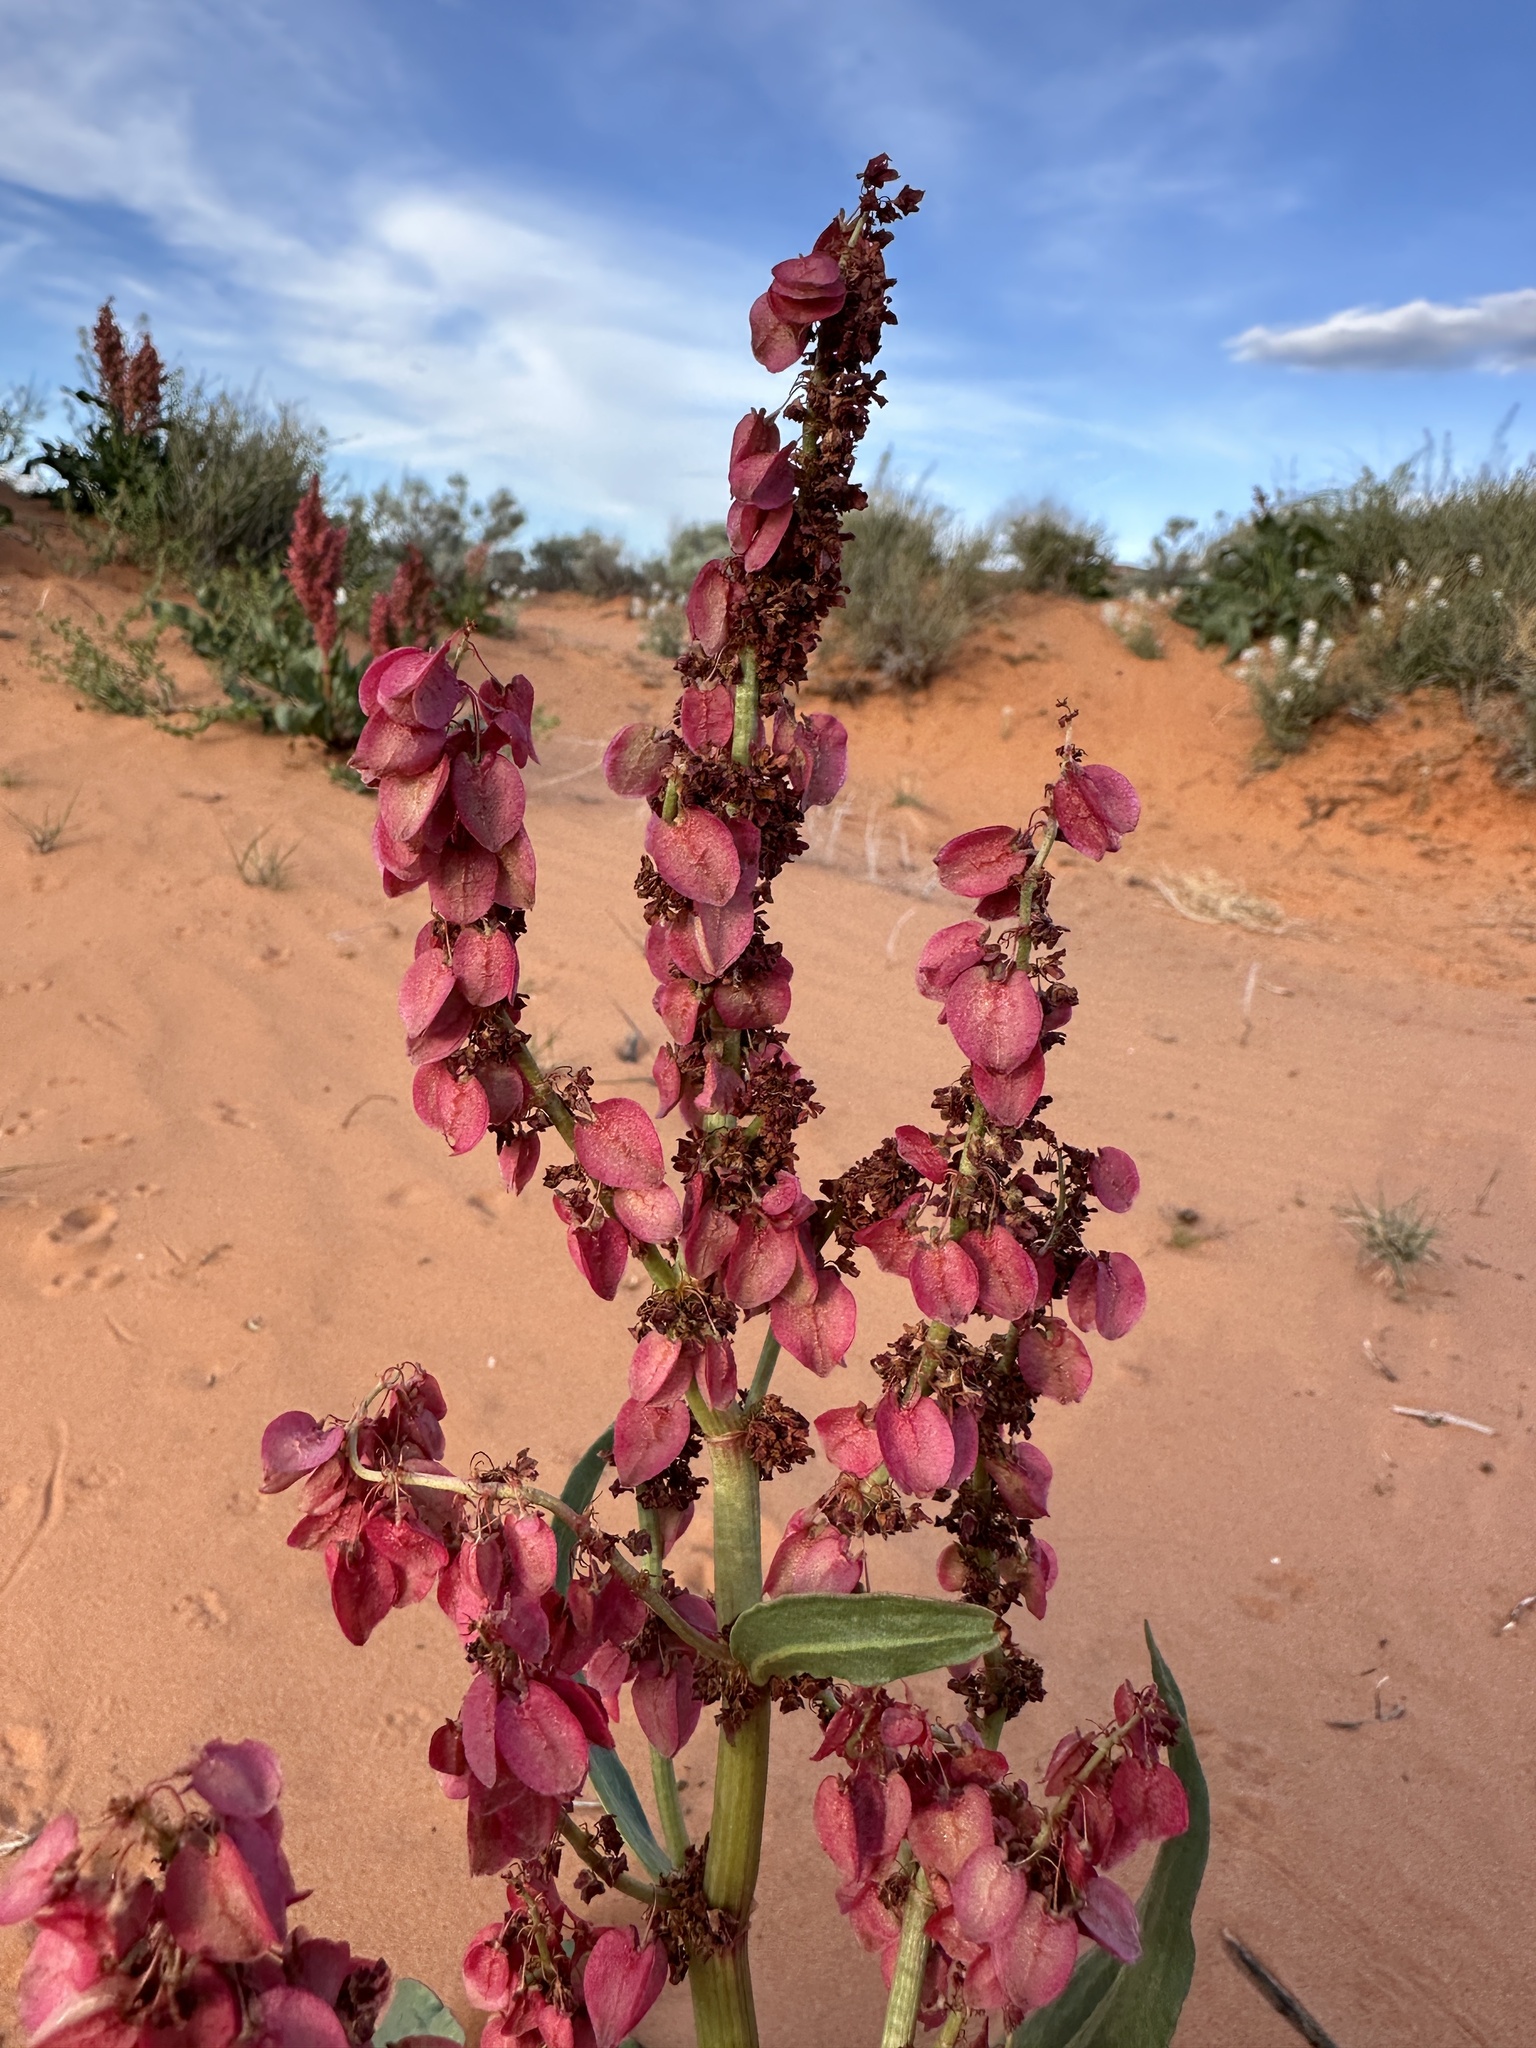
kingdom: Plantae
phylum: Tracheophyta
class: Magnoliopsida
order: Caryophyllales
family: Polygonaceae
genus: Rumex
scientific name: Rumex hymenosepalus
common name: Ganagra
